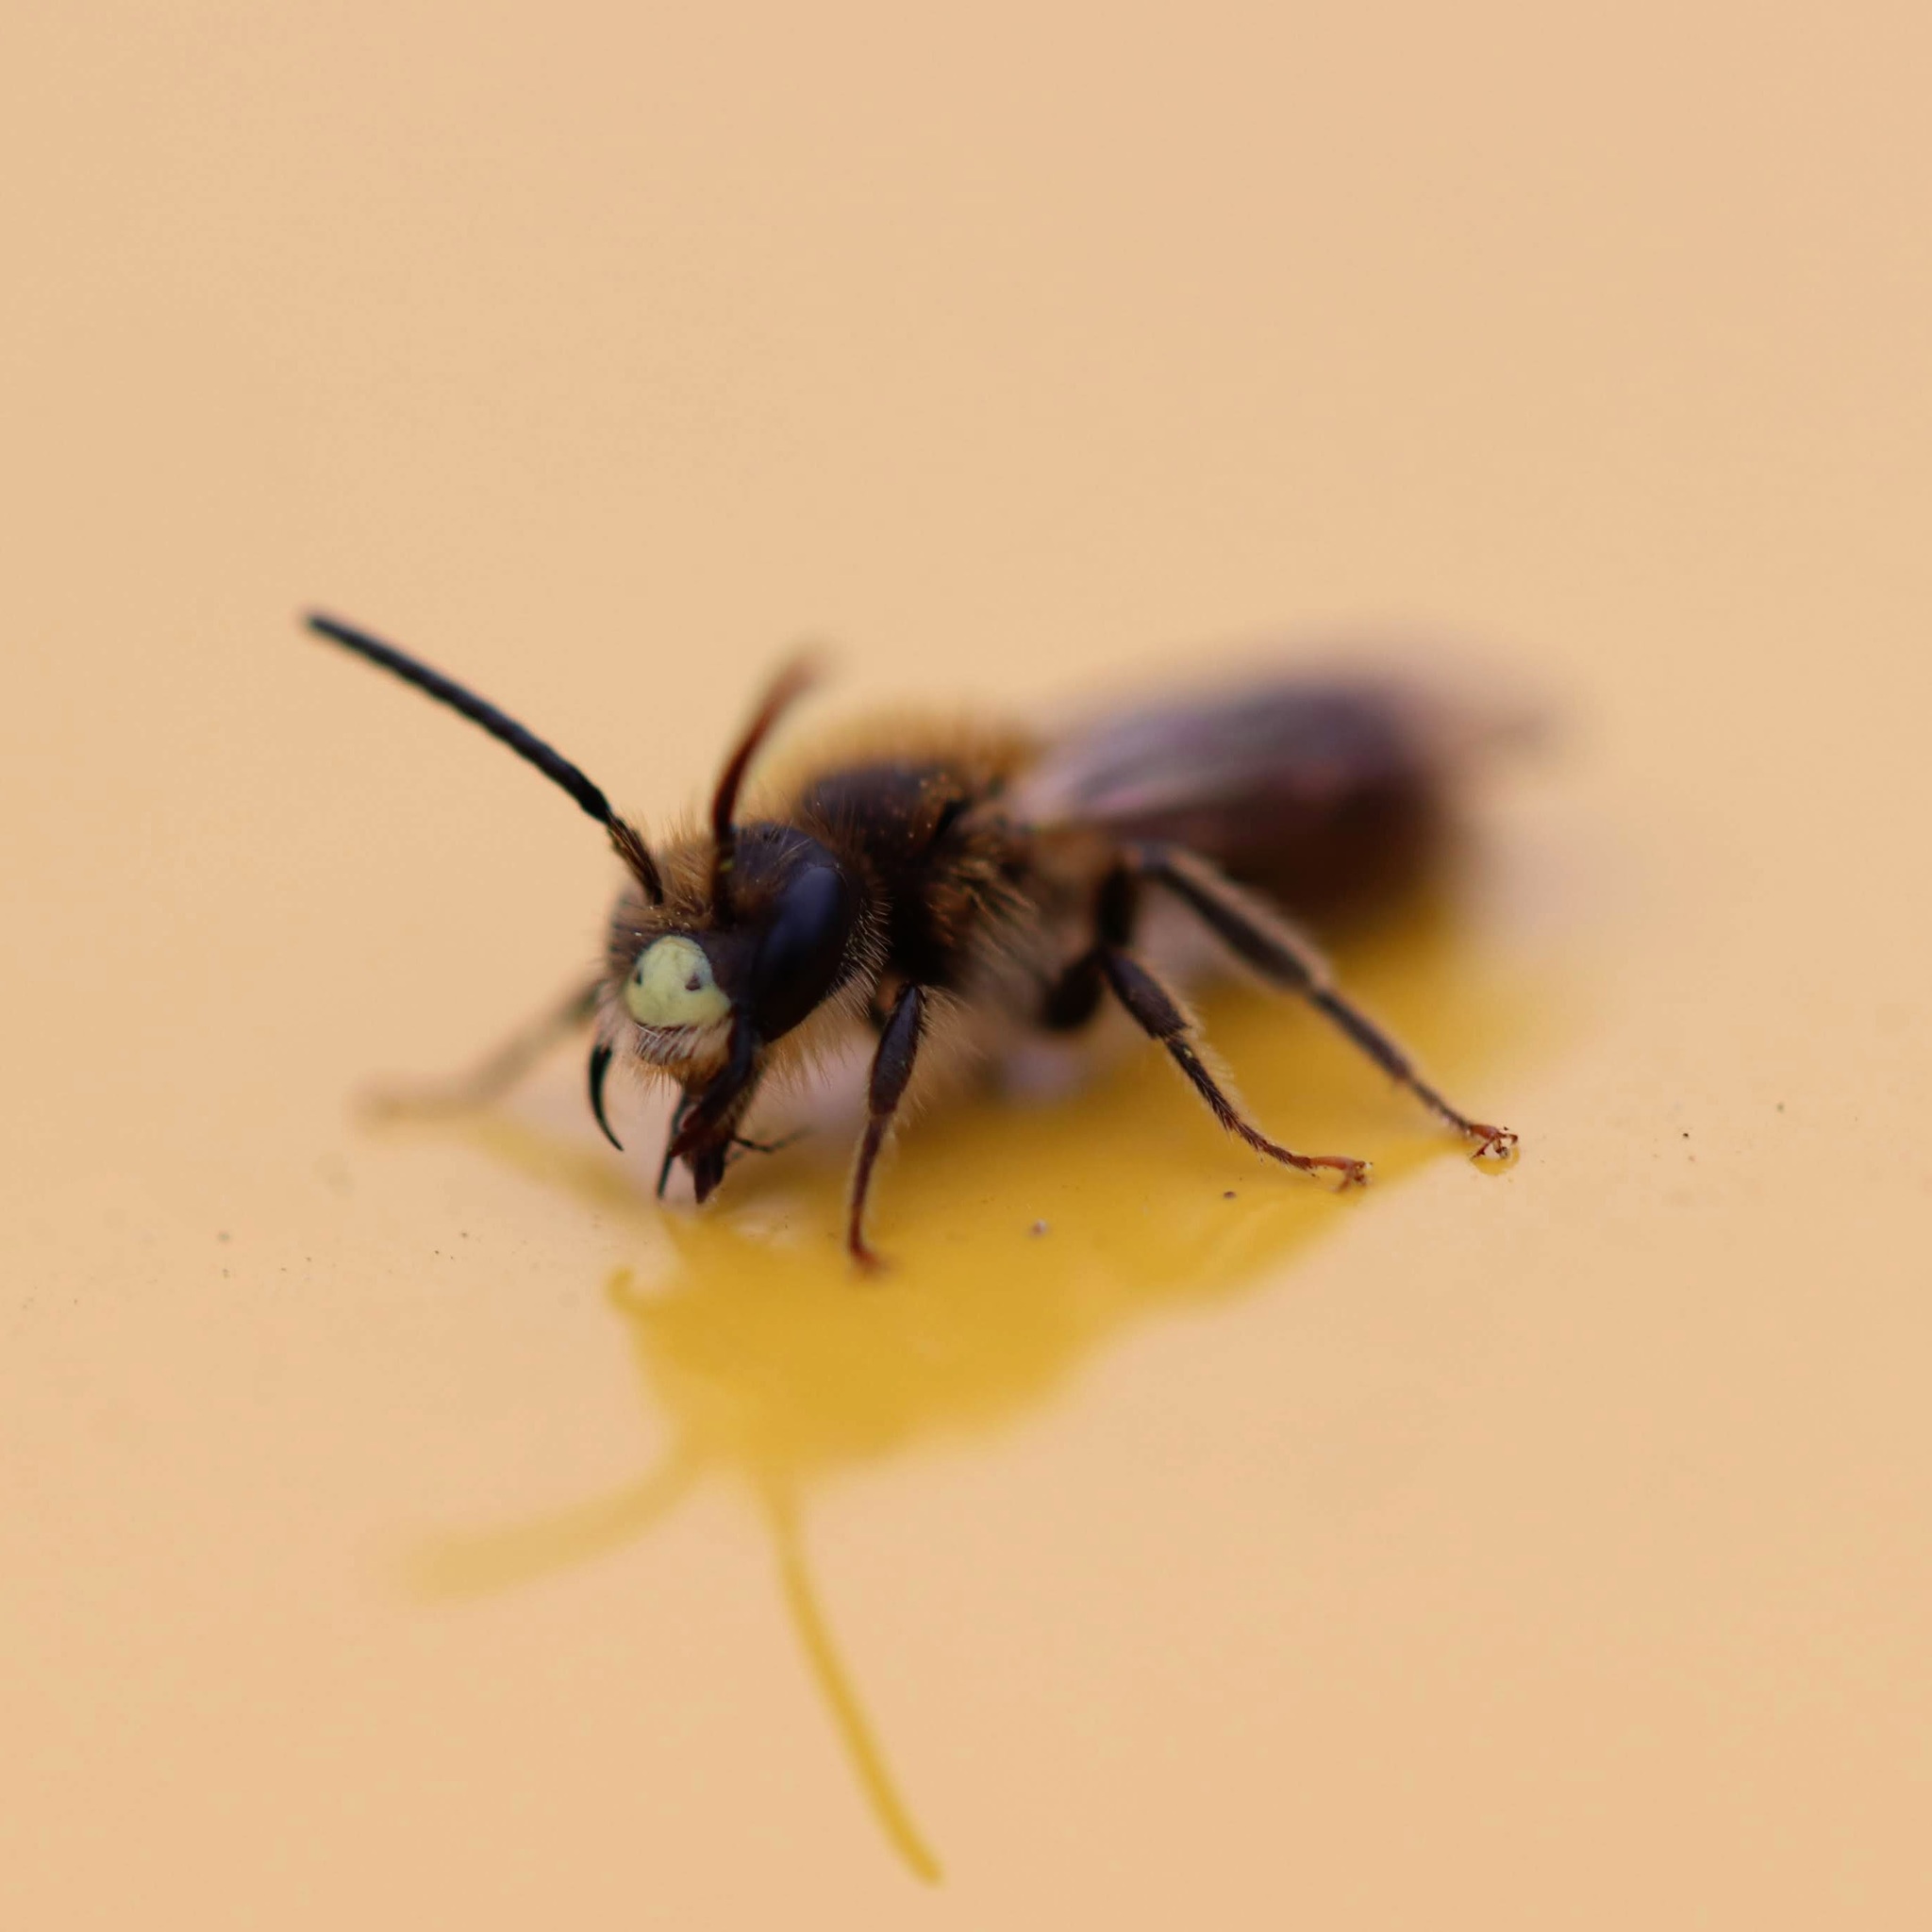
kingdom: Animalia
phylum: Arthropoda
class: Insecta
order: Hymenoptera
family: Andrenidae
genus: Andrena
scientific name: Andrena miserabilis
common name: Miserable mining bee
